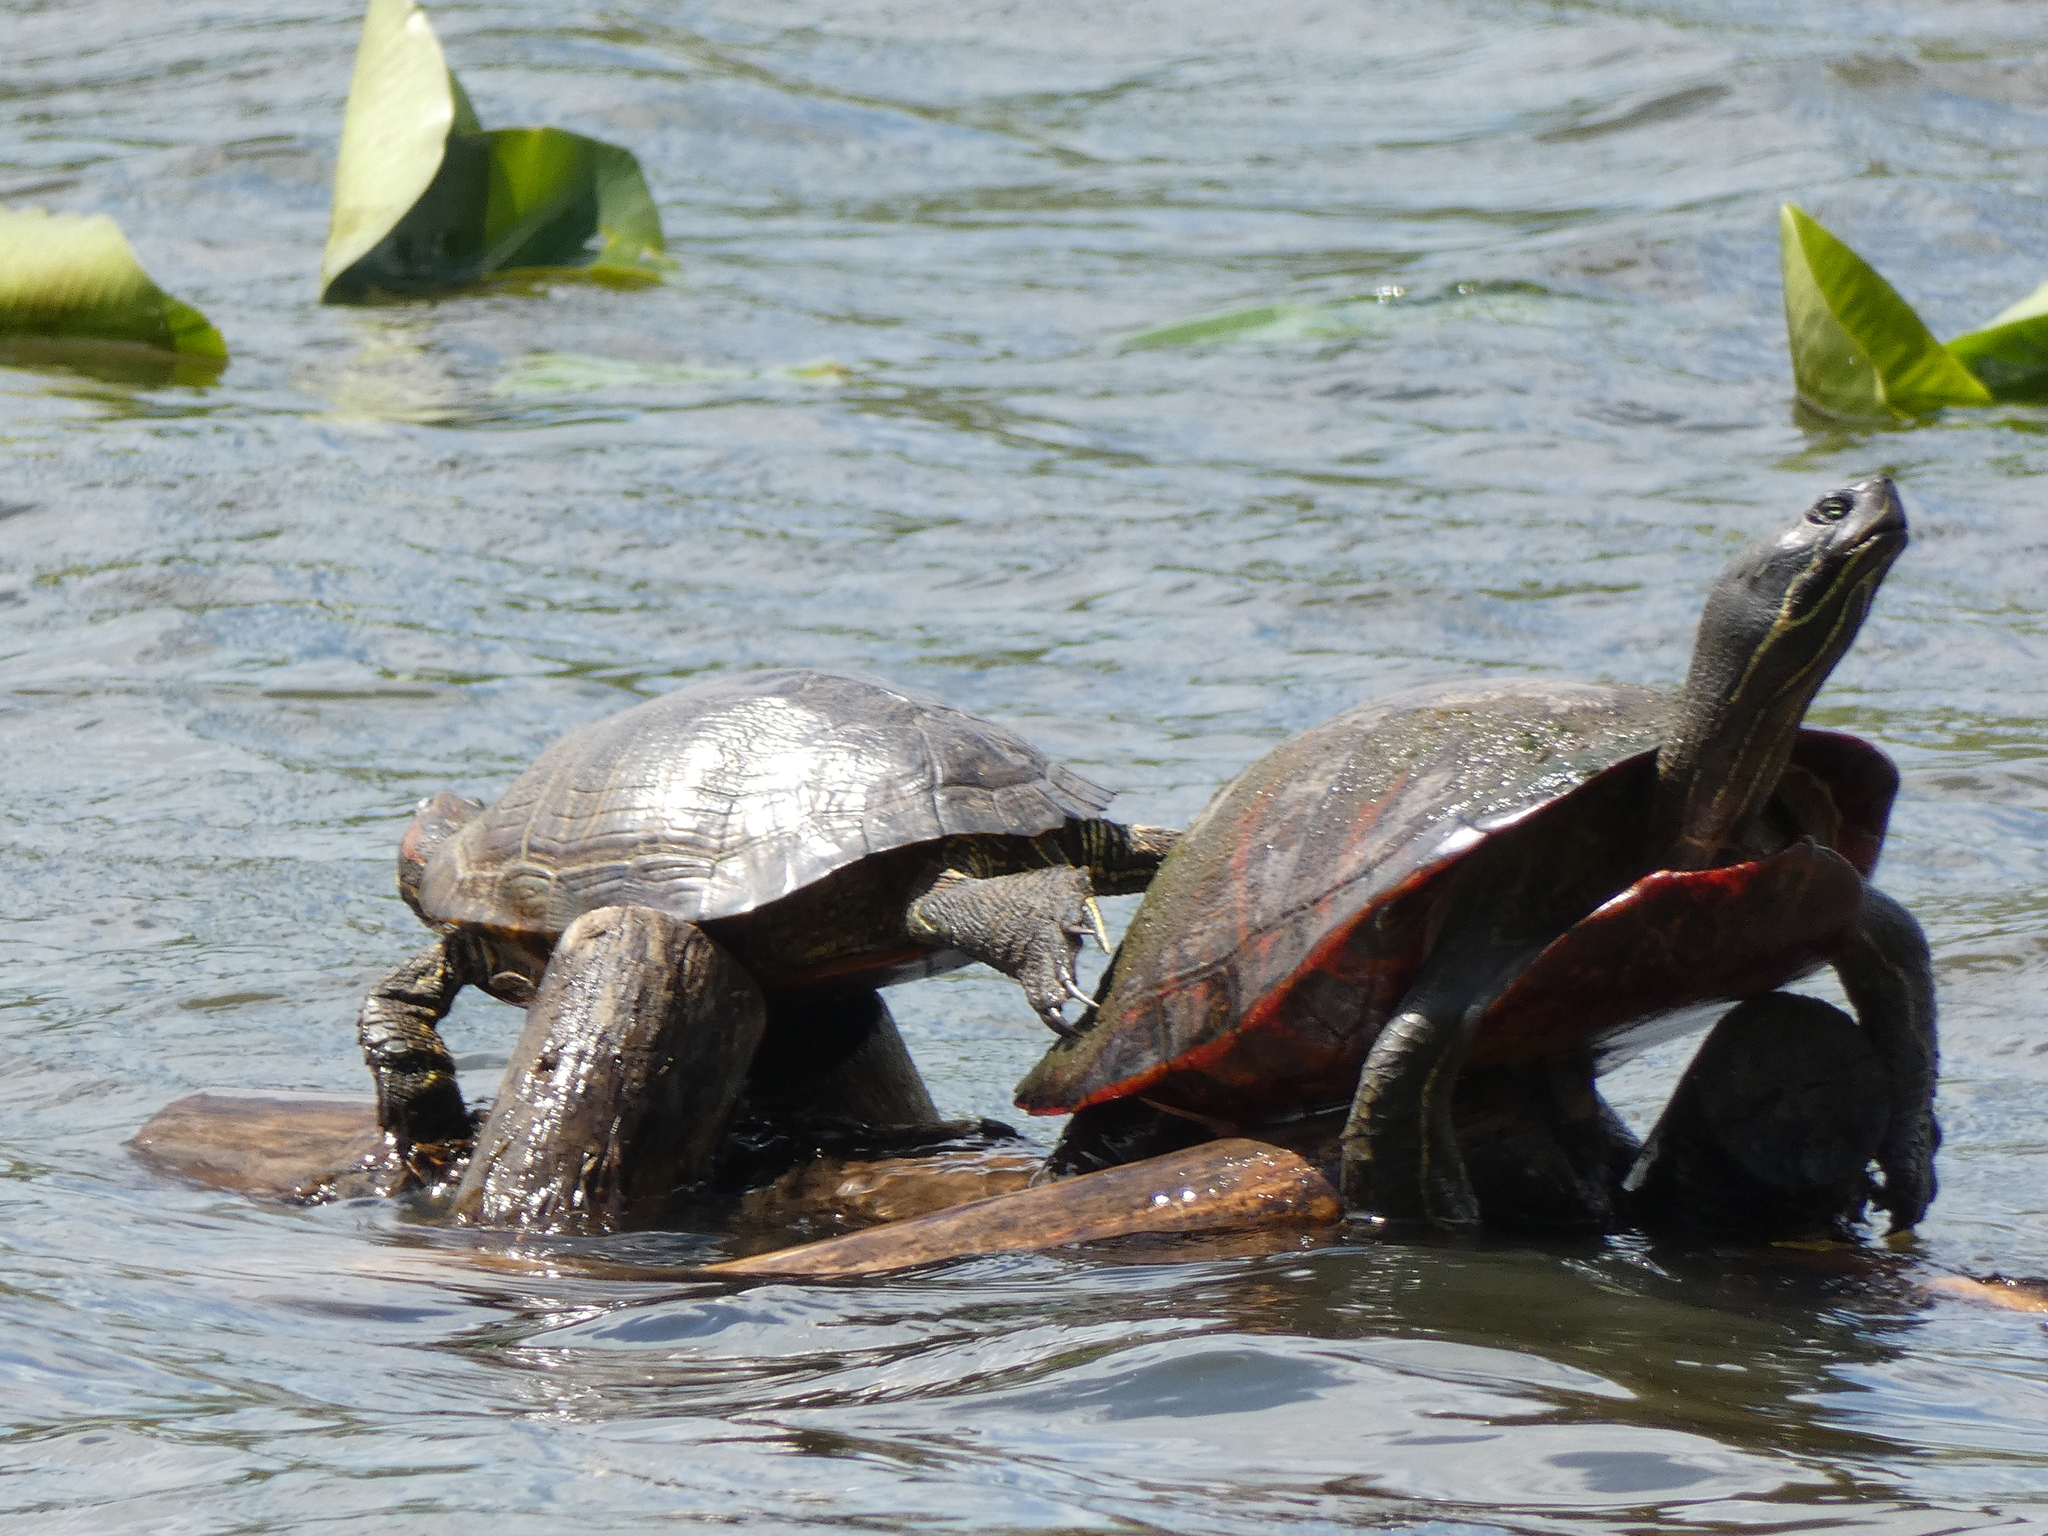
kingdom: Animalia
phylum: Chordata
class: Testudines
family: Emydidae
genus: Pseudemys
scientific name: Pseudemys rubriventris
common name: American red-bellied turtle
